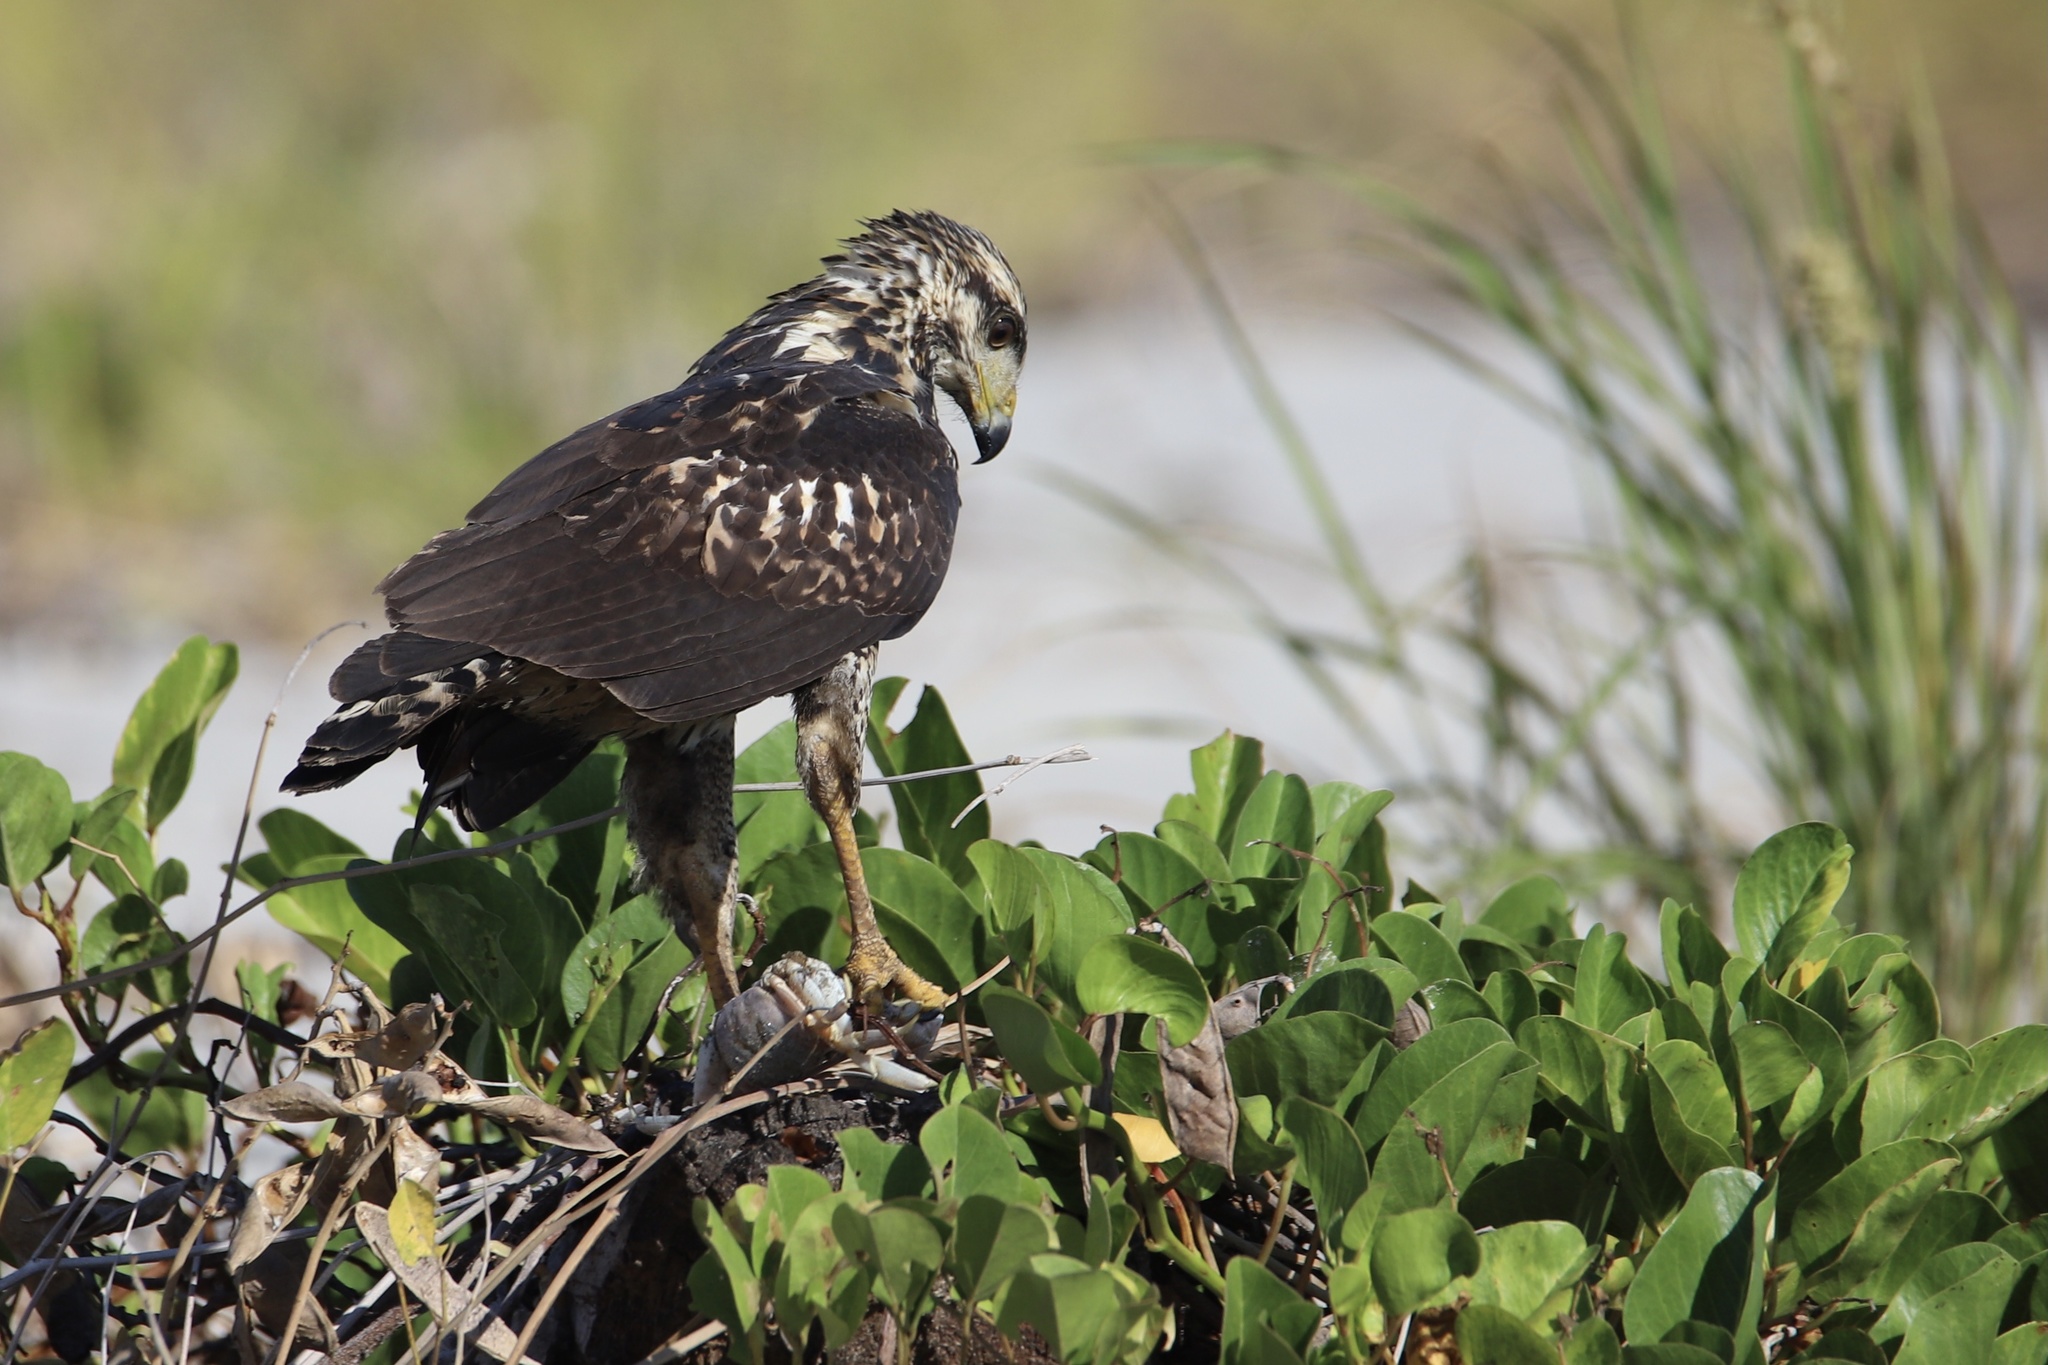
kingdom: Animalia
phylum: Chordata
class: Aves
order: Accipitriformes
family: Accipitridae
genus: Buteogallus
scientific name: Buteogallus anthracinus
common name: Common black hawk
